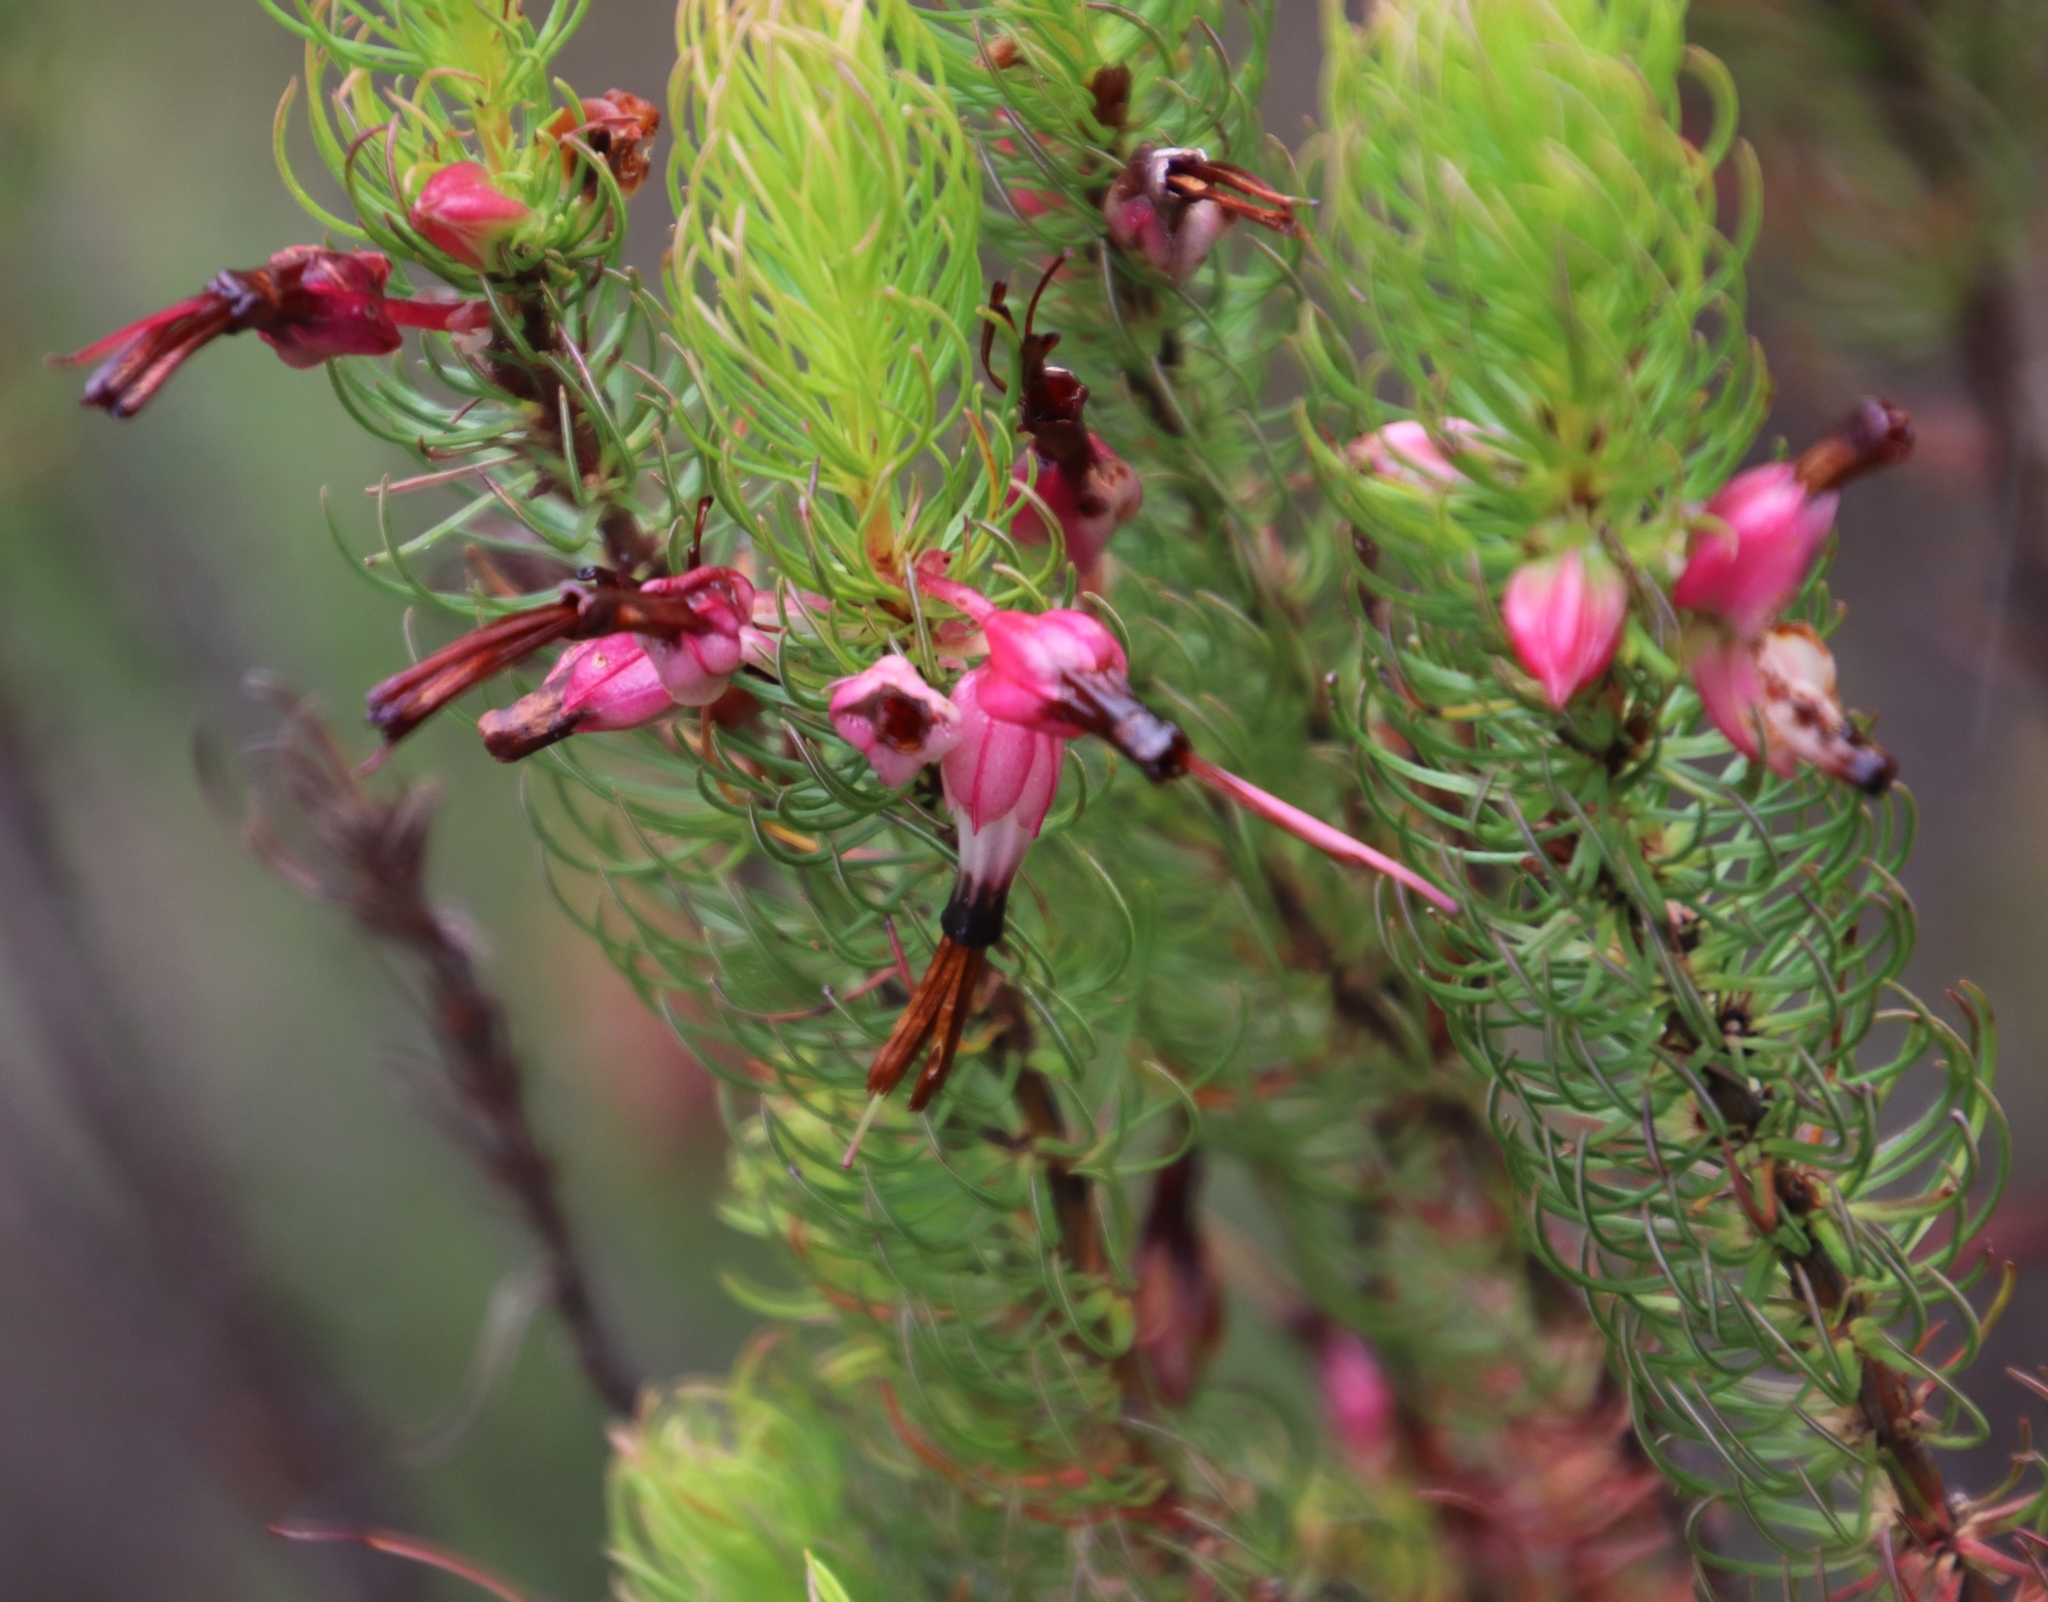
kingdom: Plantae
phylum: Tracheophyta
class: Magnoliopsida
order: Ericales
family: Ericaceae
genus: Erica
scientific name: Erica plukenetii
